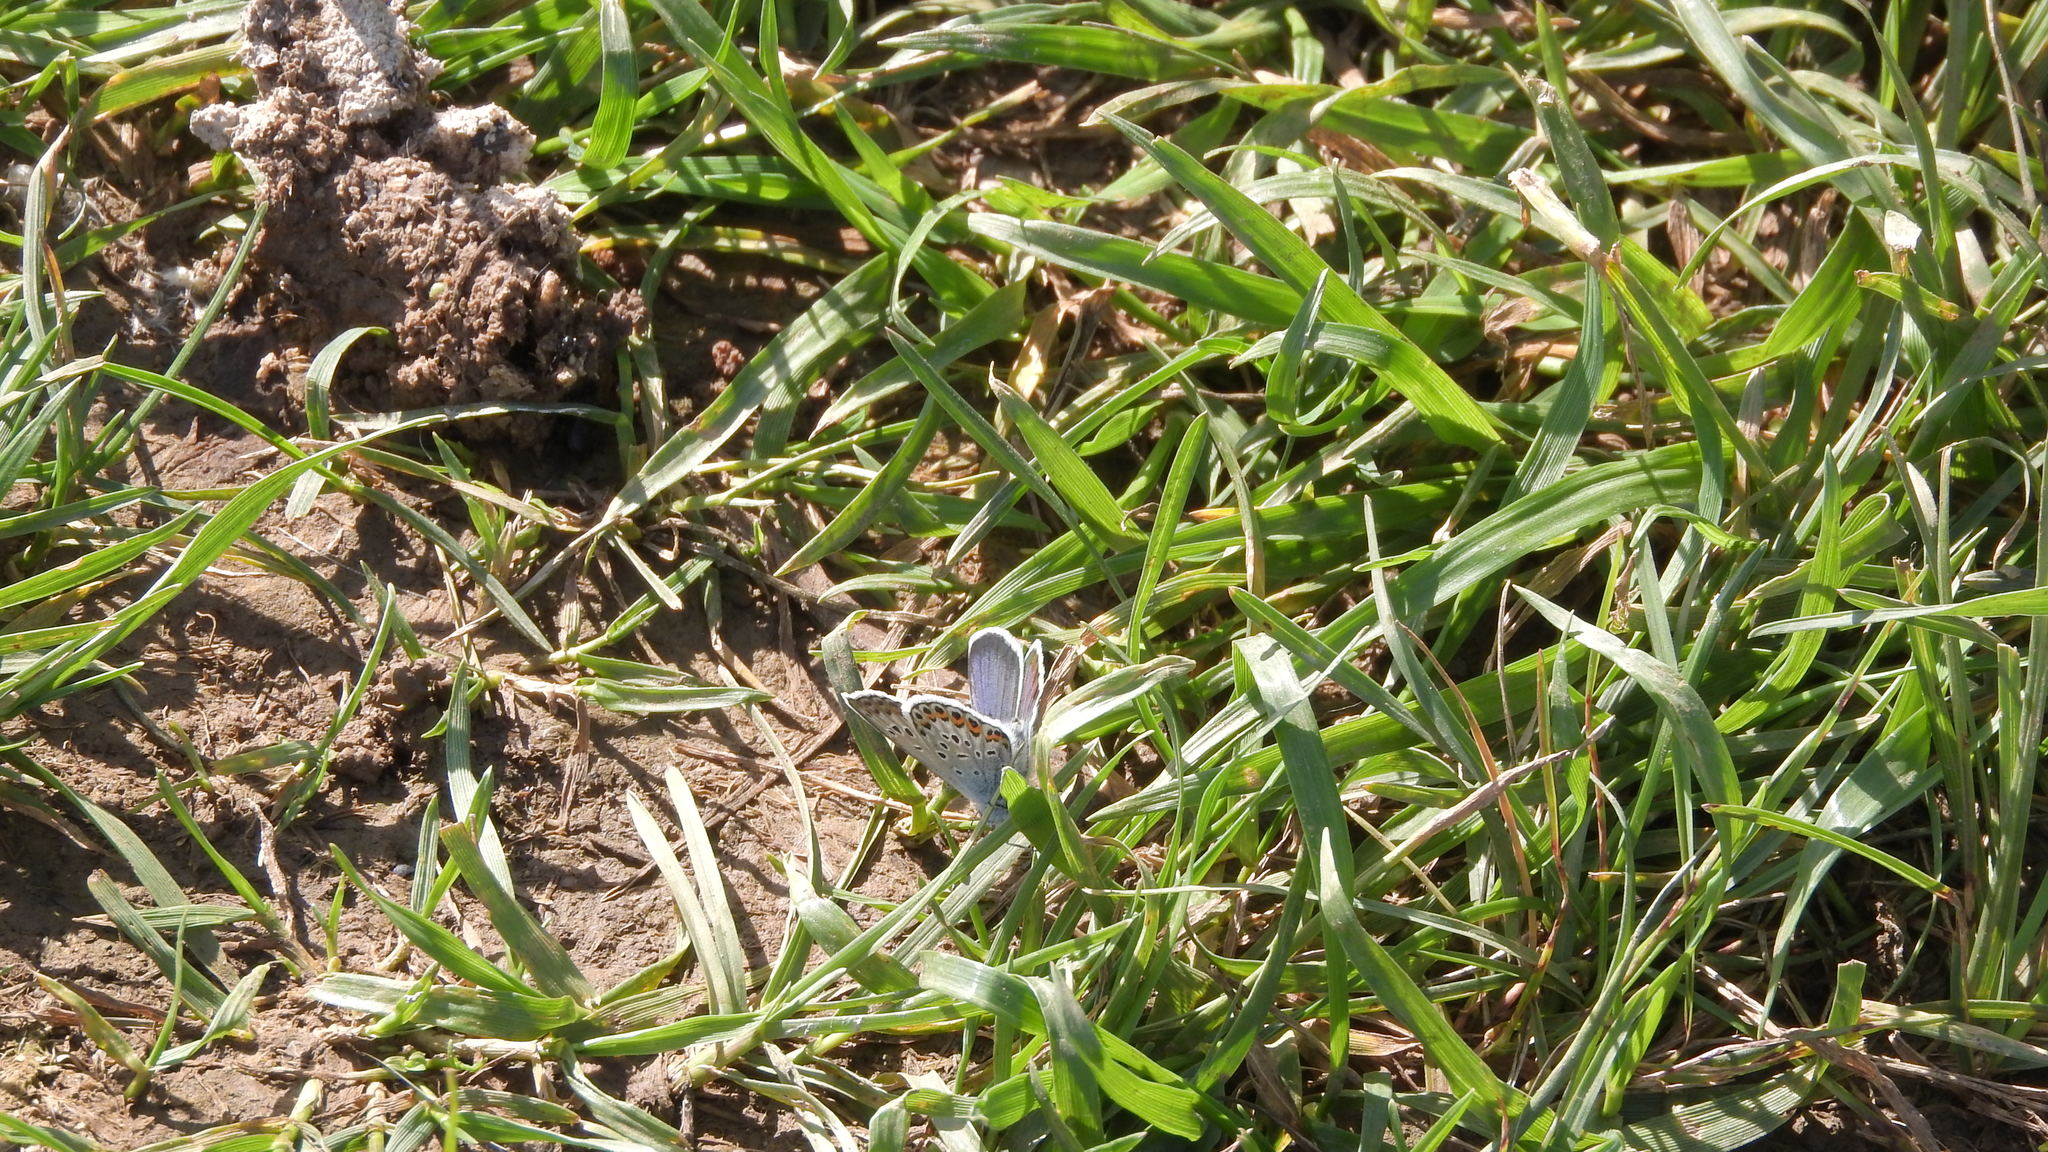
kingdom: Animalia
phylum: Arthropoda
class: Insecta
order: Lepidoptera
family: Lycaenidae
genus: Plebejus
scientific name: Plebejus argus
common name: Silver-studded blue
